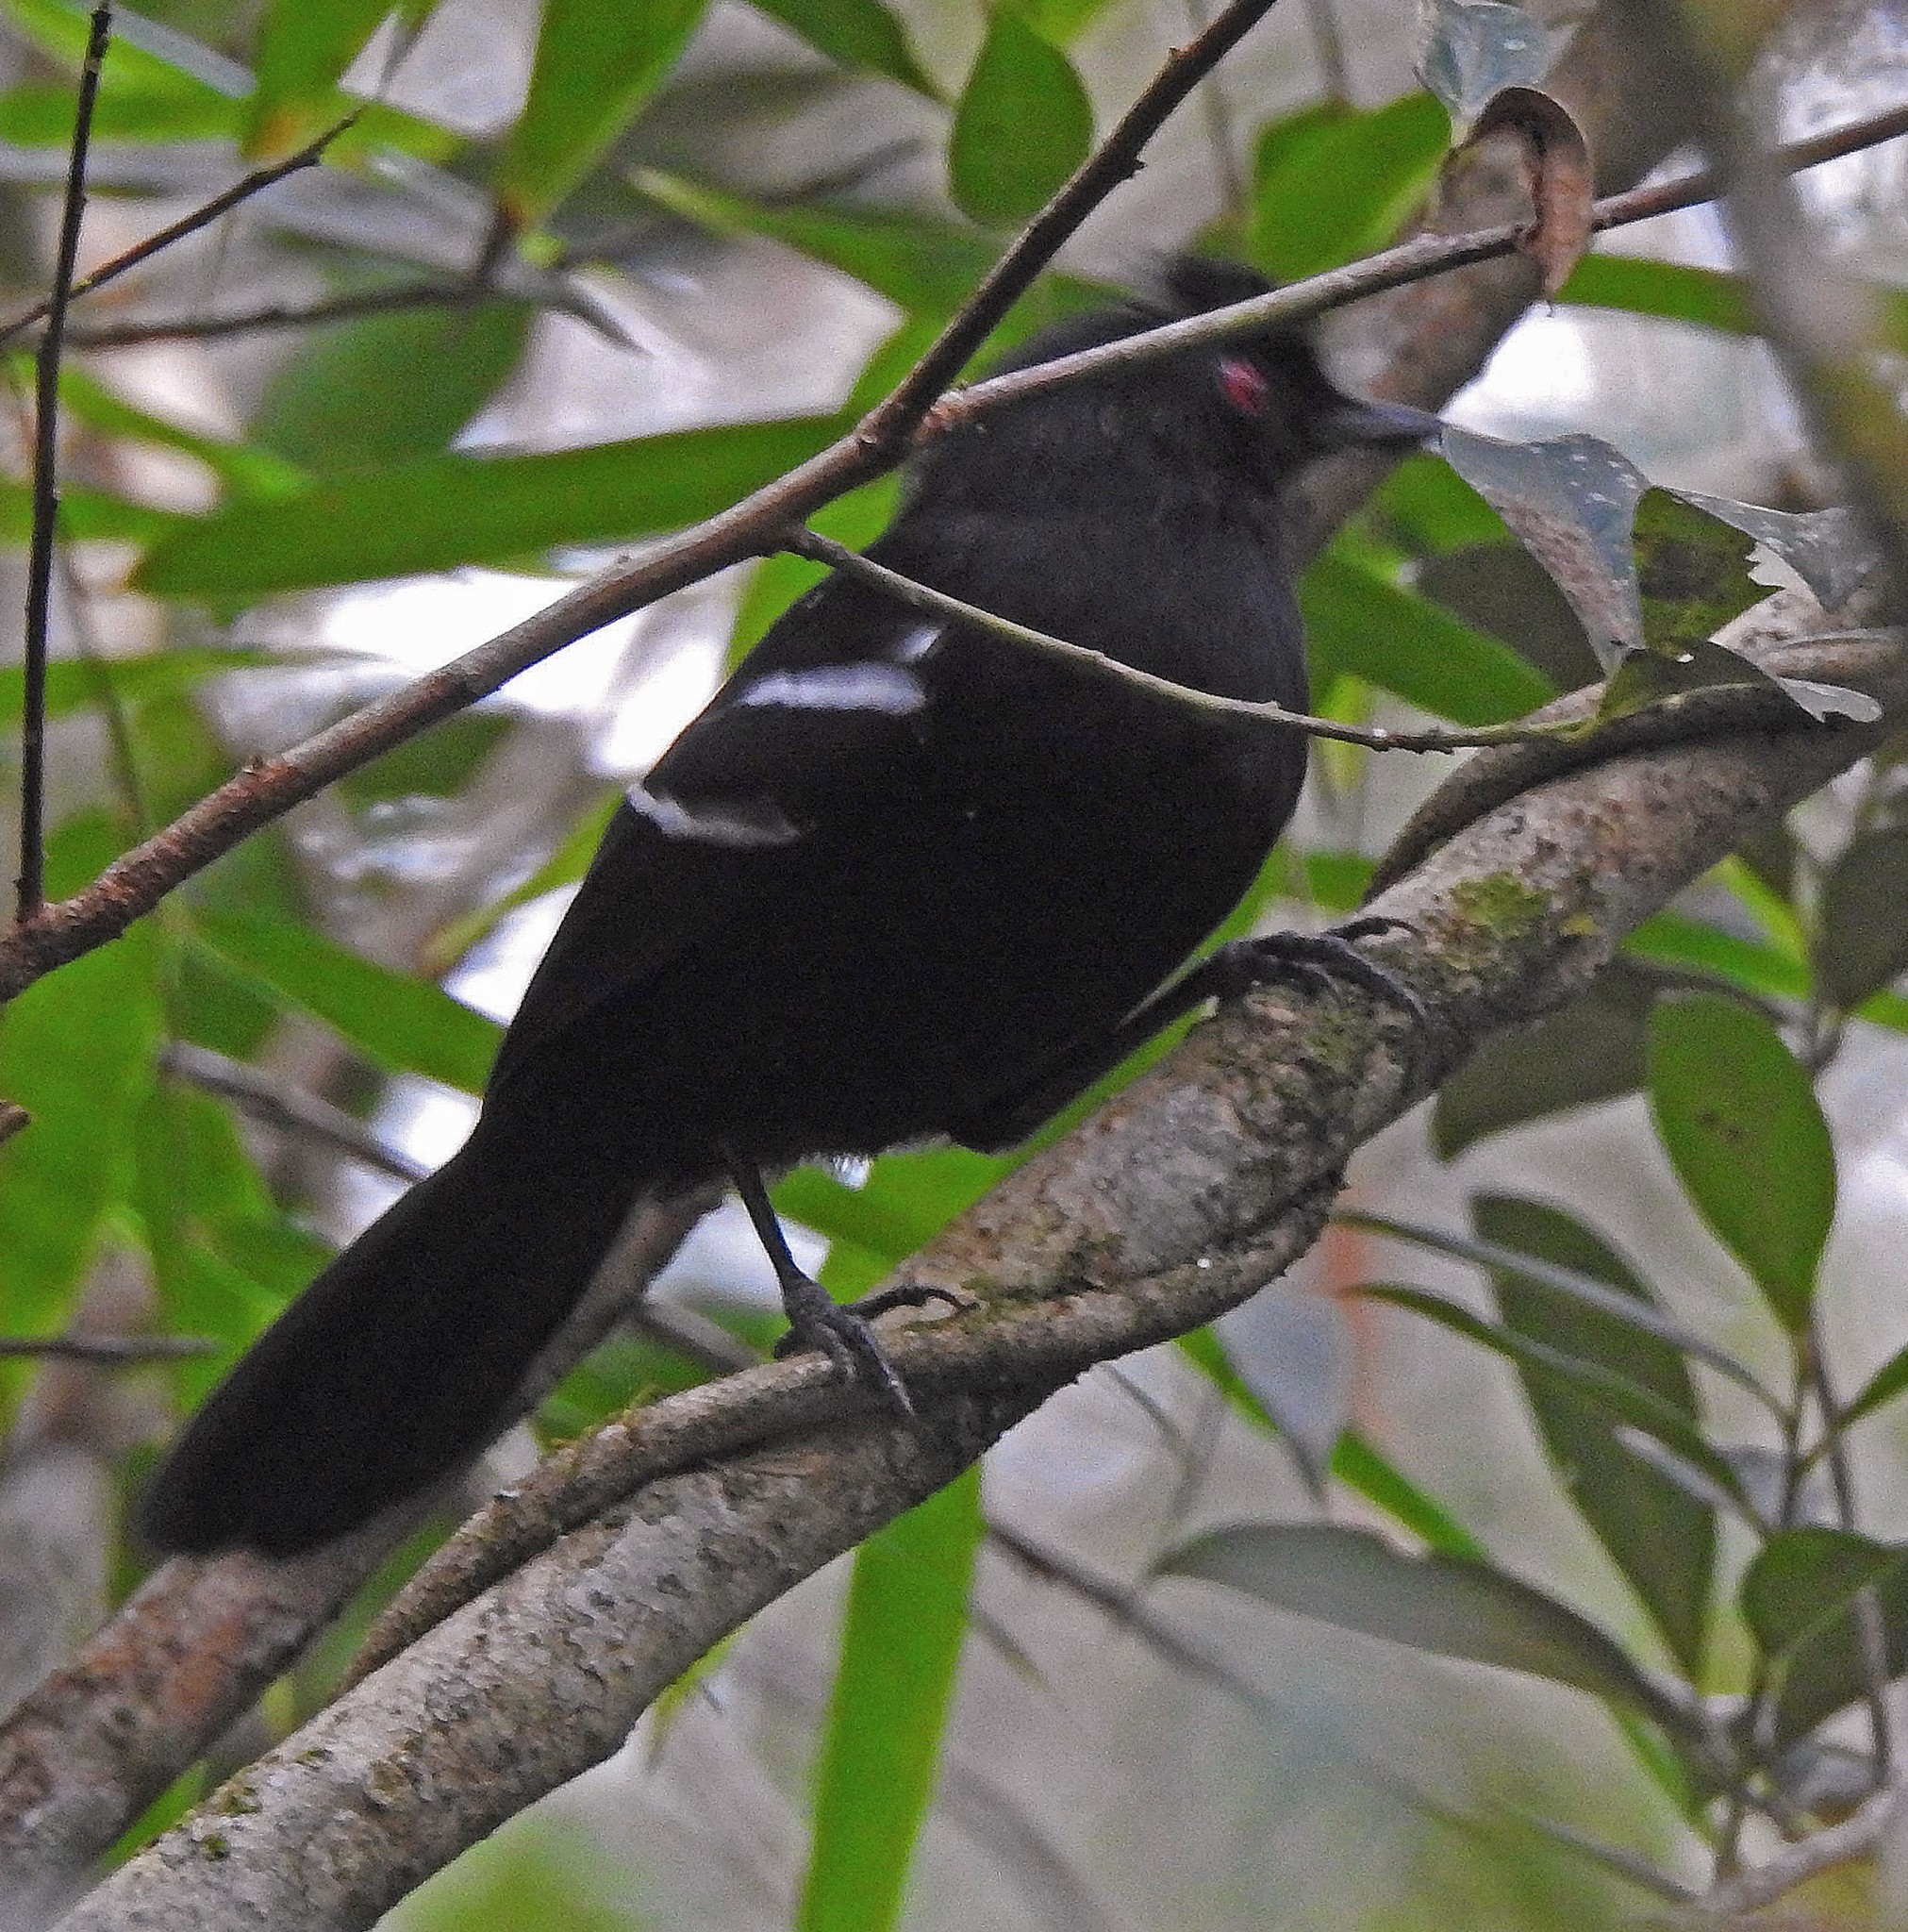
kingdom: Animalia
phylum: Chordata
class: Aves
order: Passeriformes
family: Thamnophilidae
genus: Pyriglena
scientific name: Pyriglena leucoptera
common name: White-shouldered fire-eye
